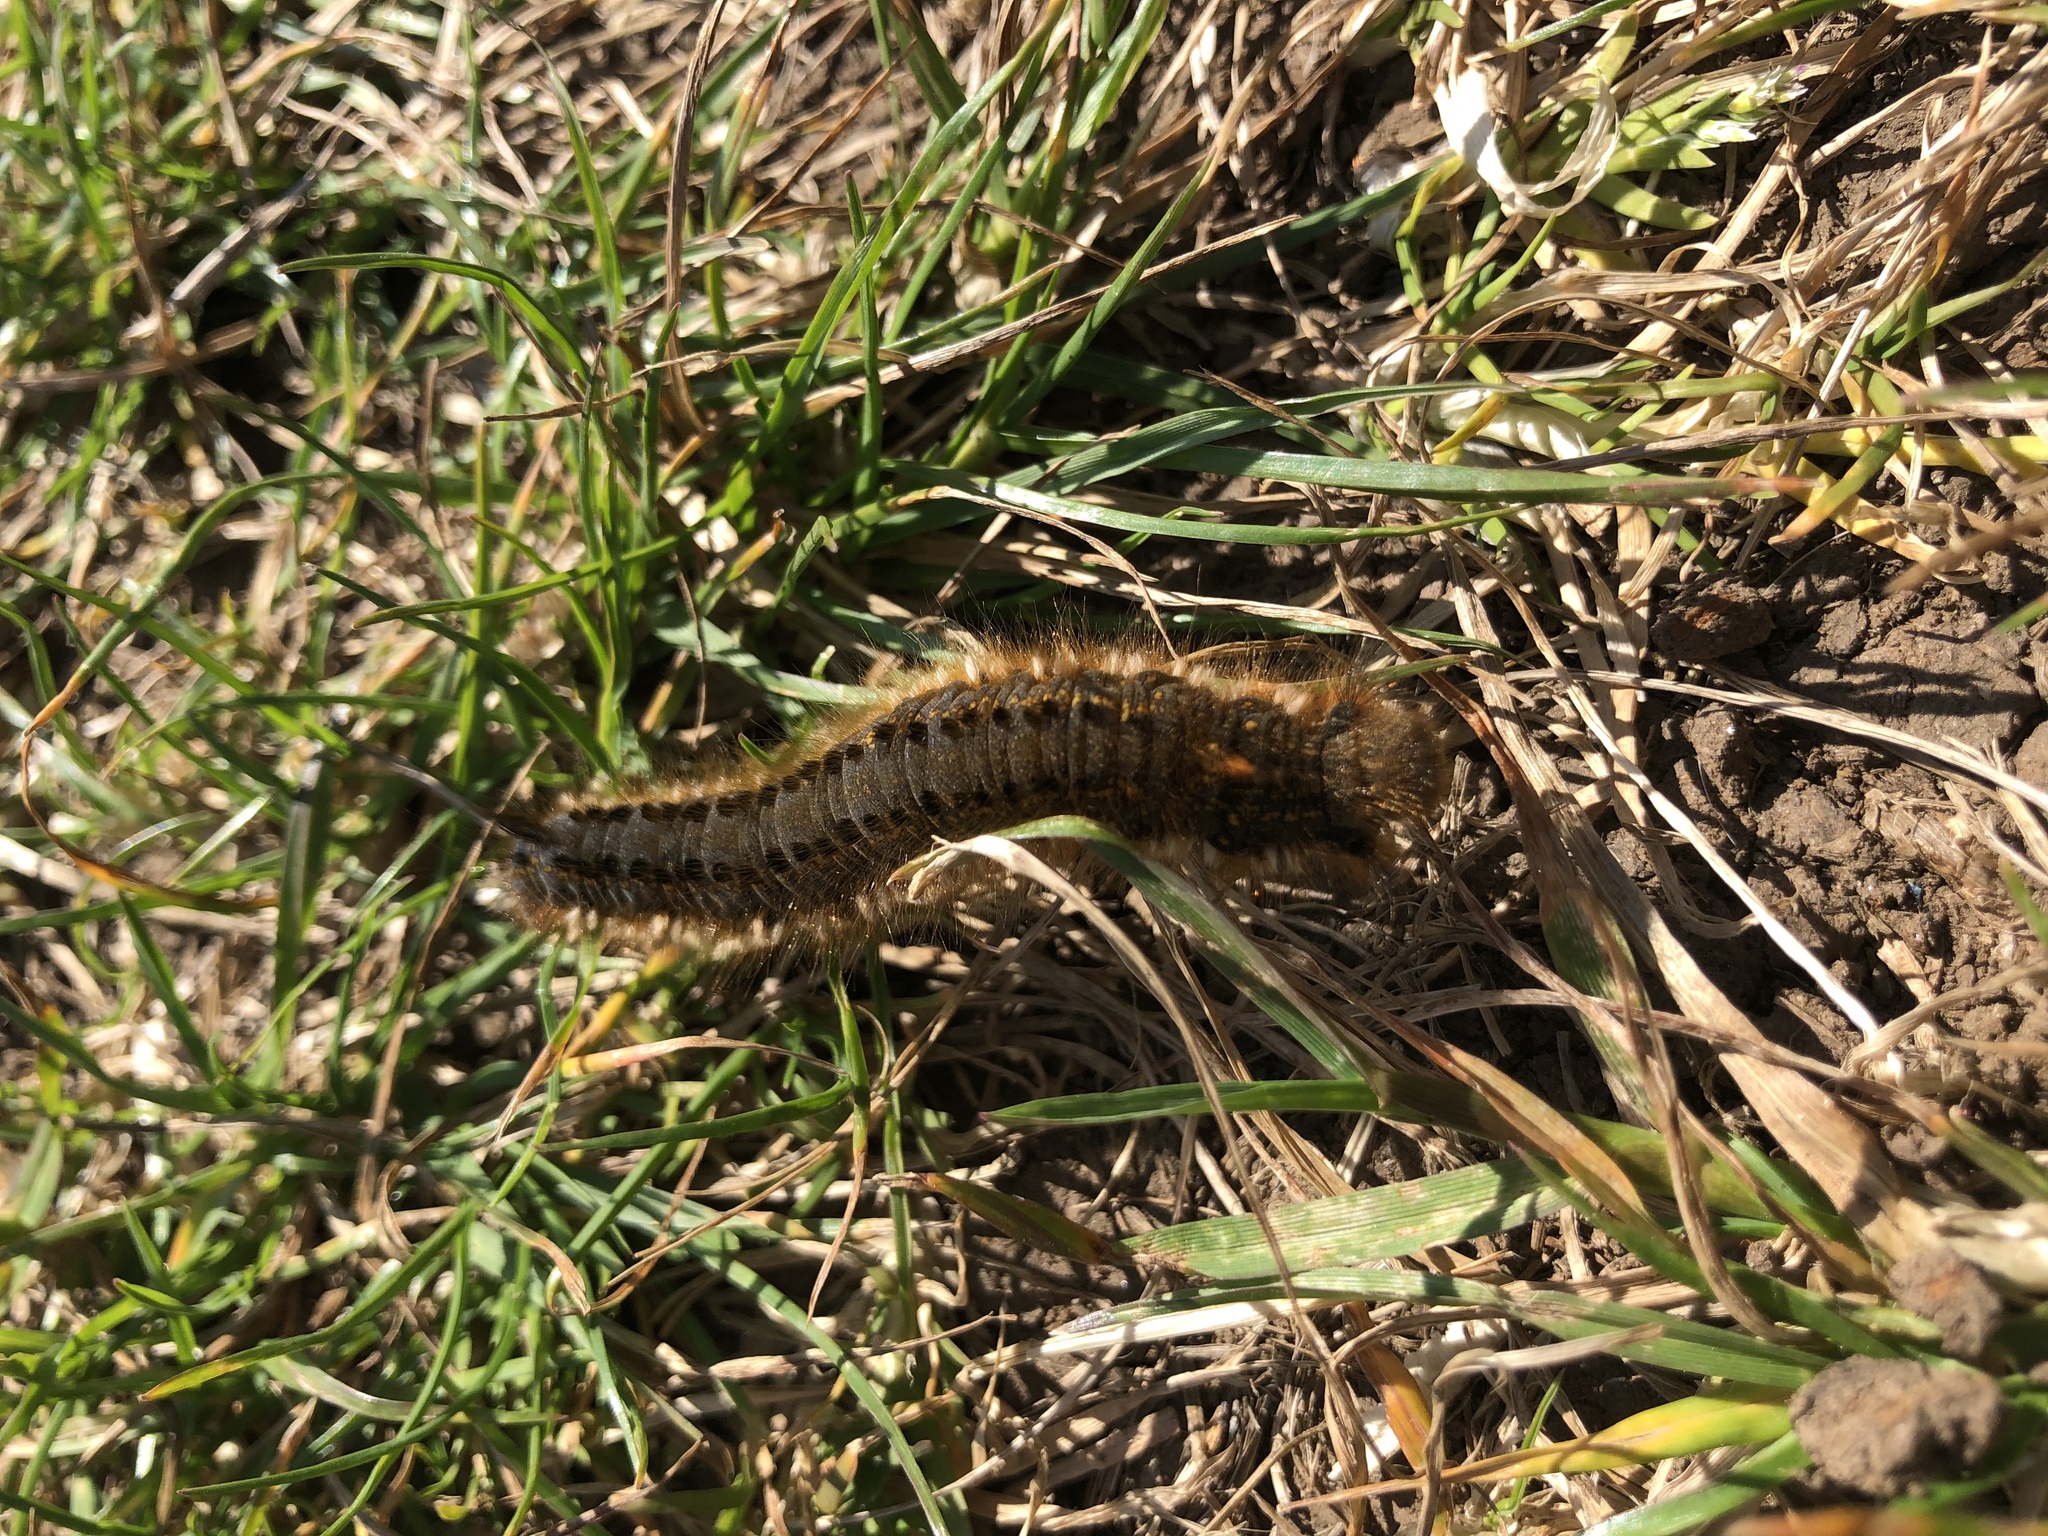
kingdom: Animalia
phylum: Arthropoda
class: Insecta
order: Lepidoptera
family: Lasiocampidae
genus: Euthrix
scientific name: Euthrix potatoria
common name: Drinker
